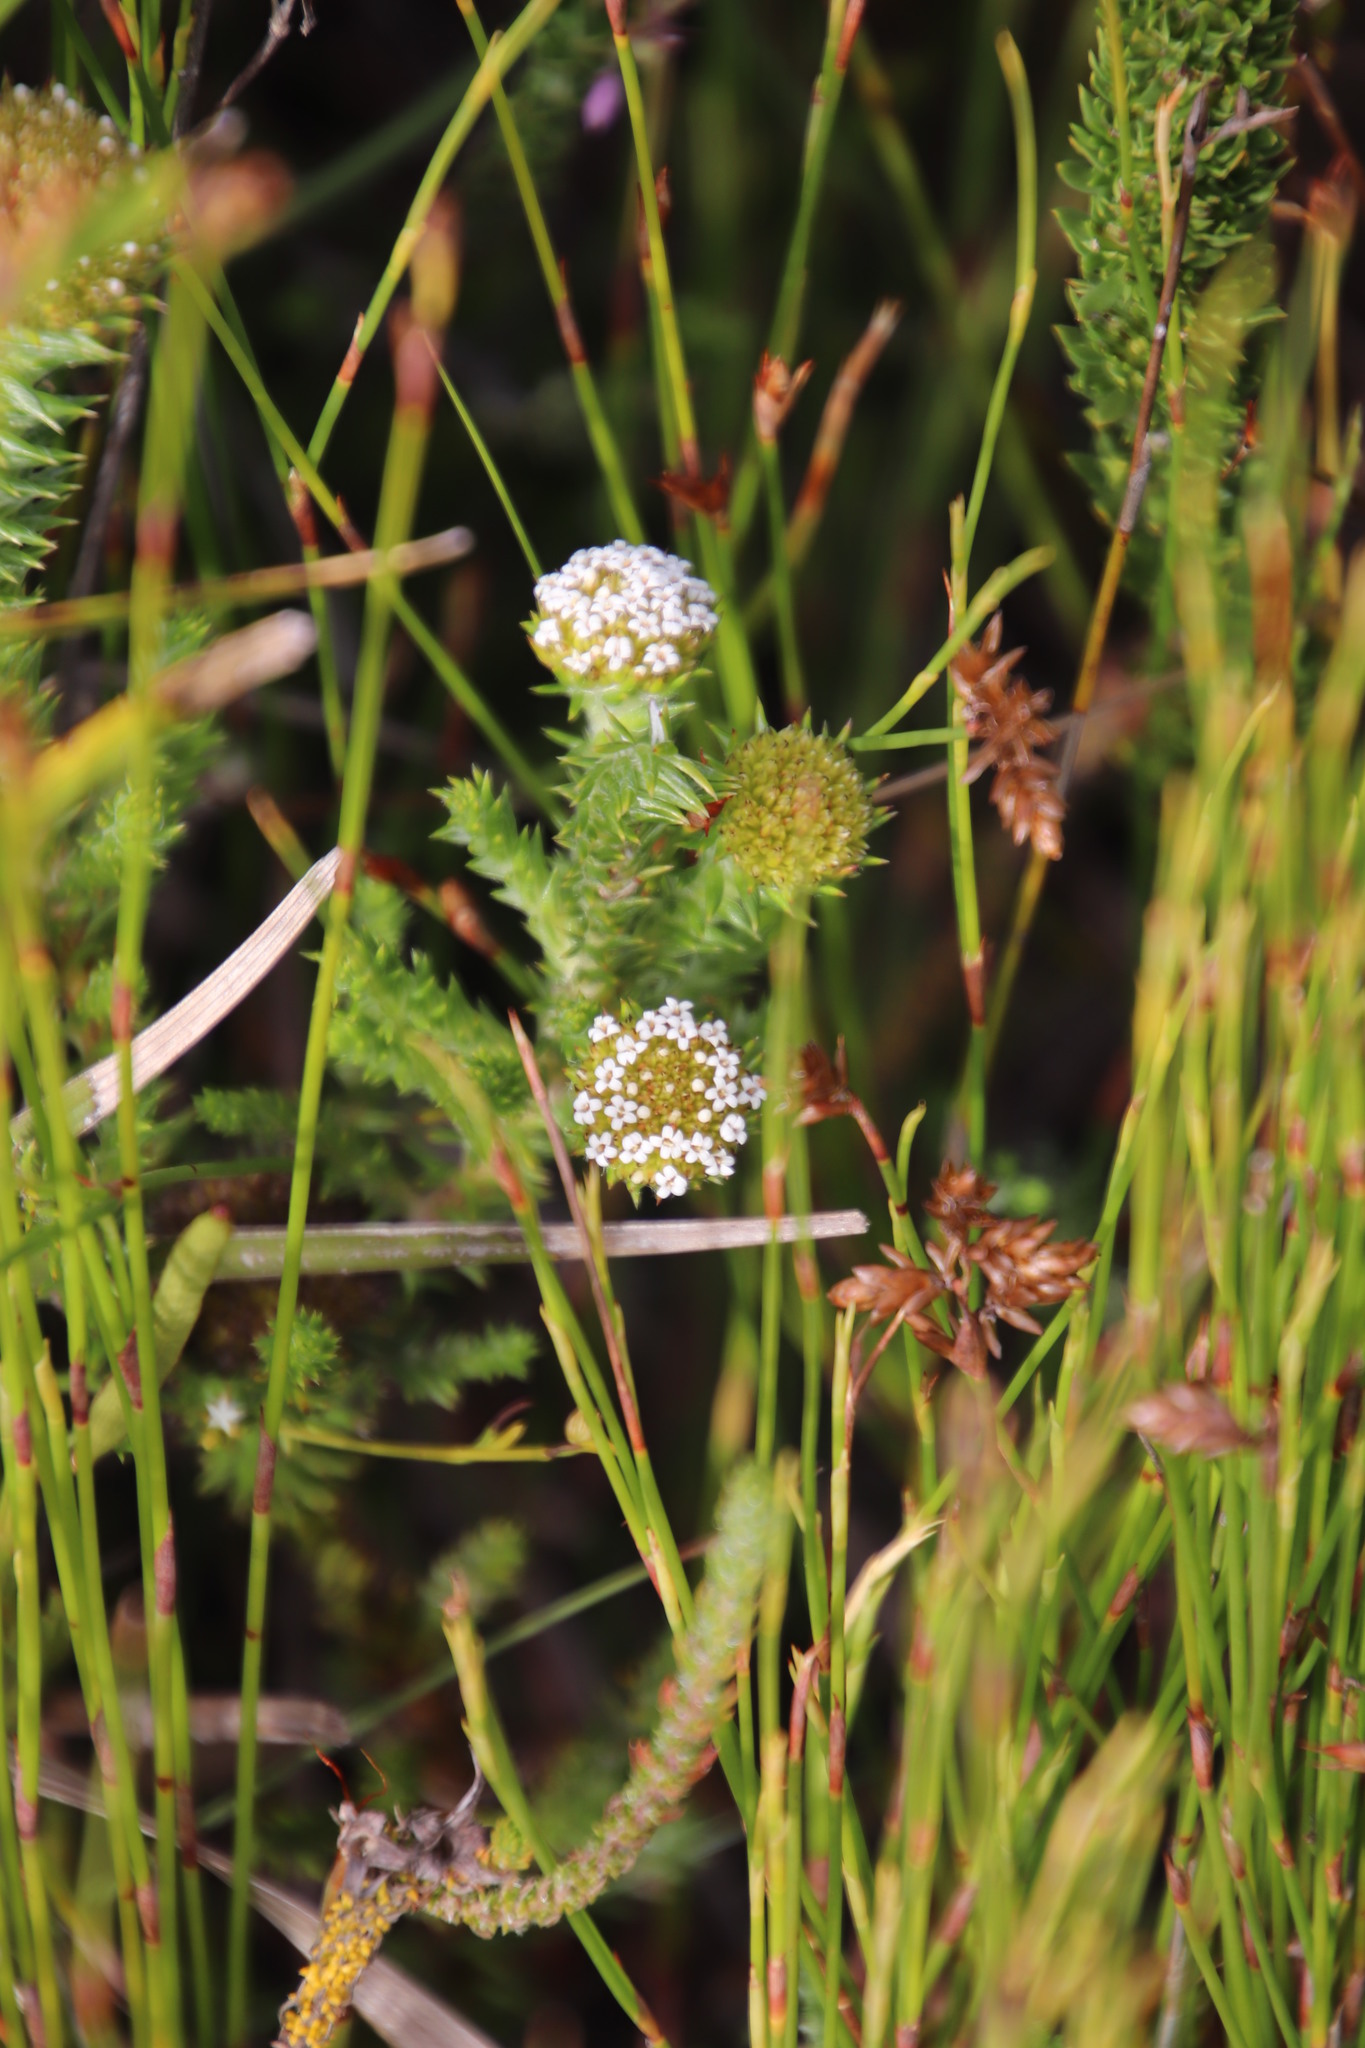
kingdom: Plantae
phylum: Tracheophyta
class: Magnoliopsida
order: Asterales
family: Asteraceae
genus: Stoebe
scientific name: Stoebe aethiopica
